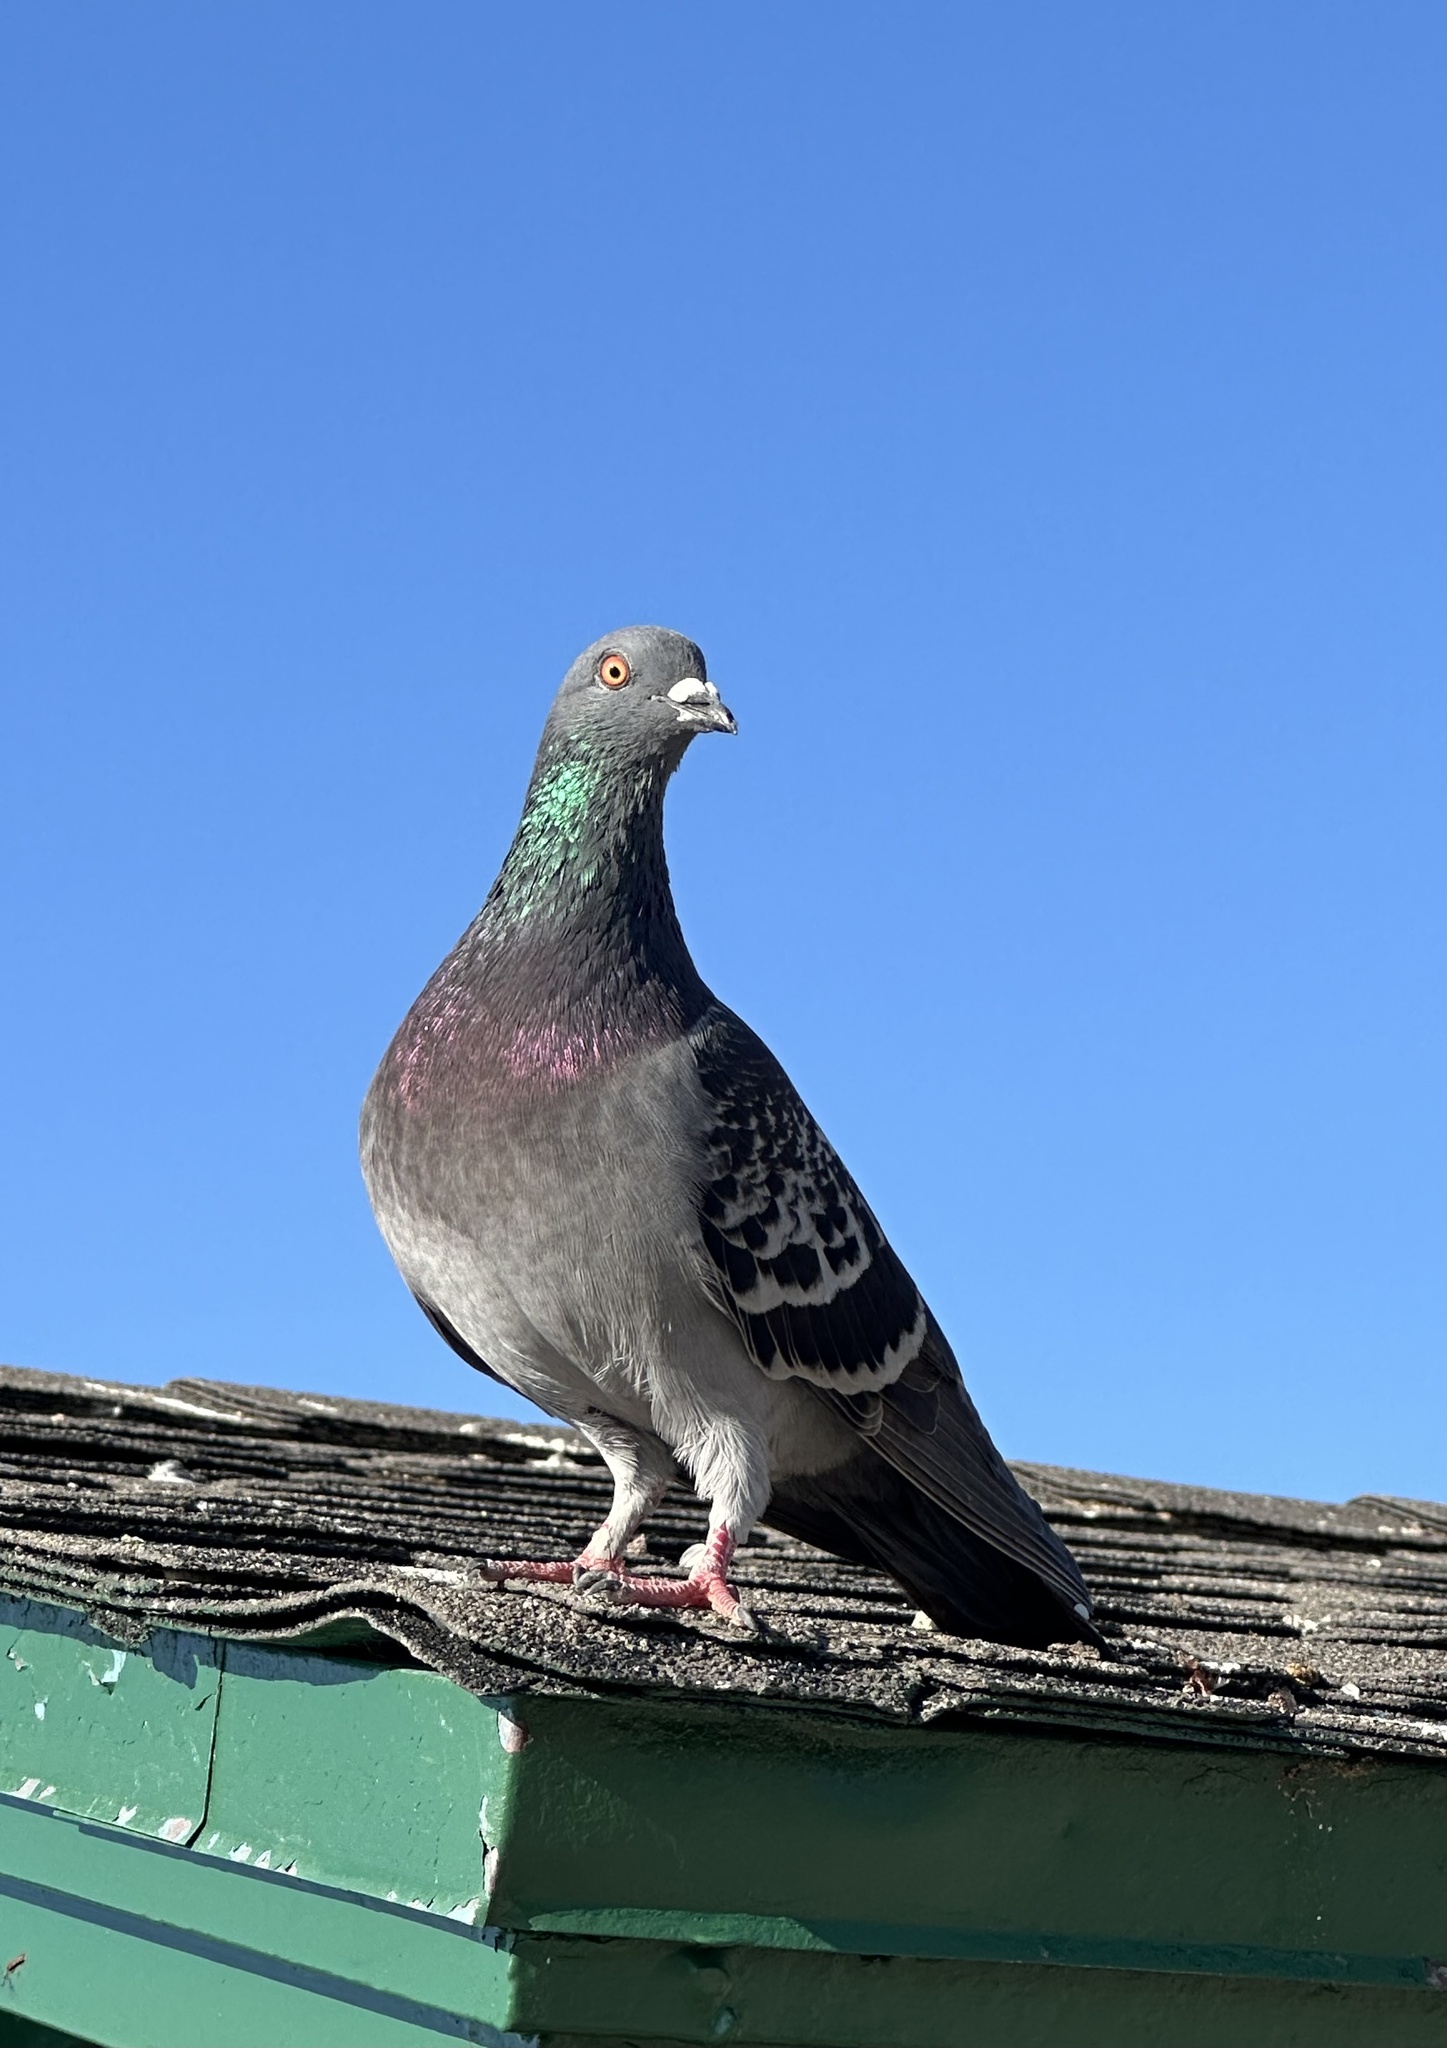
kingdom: Animalia
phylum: Chordata
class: Aves
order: Columbiformes
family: Columbidae
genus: Columba
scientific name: Columba livia
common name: Rock pigeon
